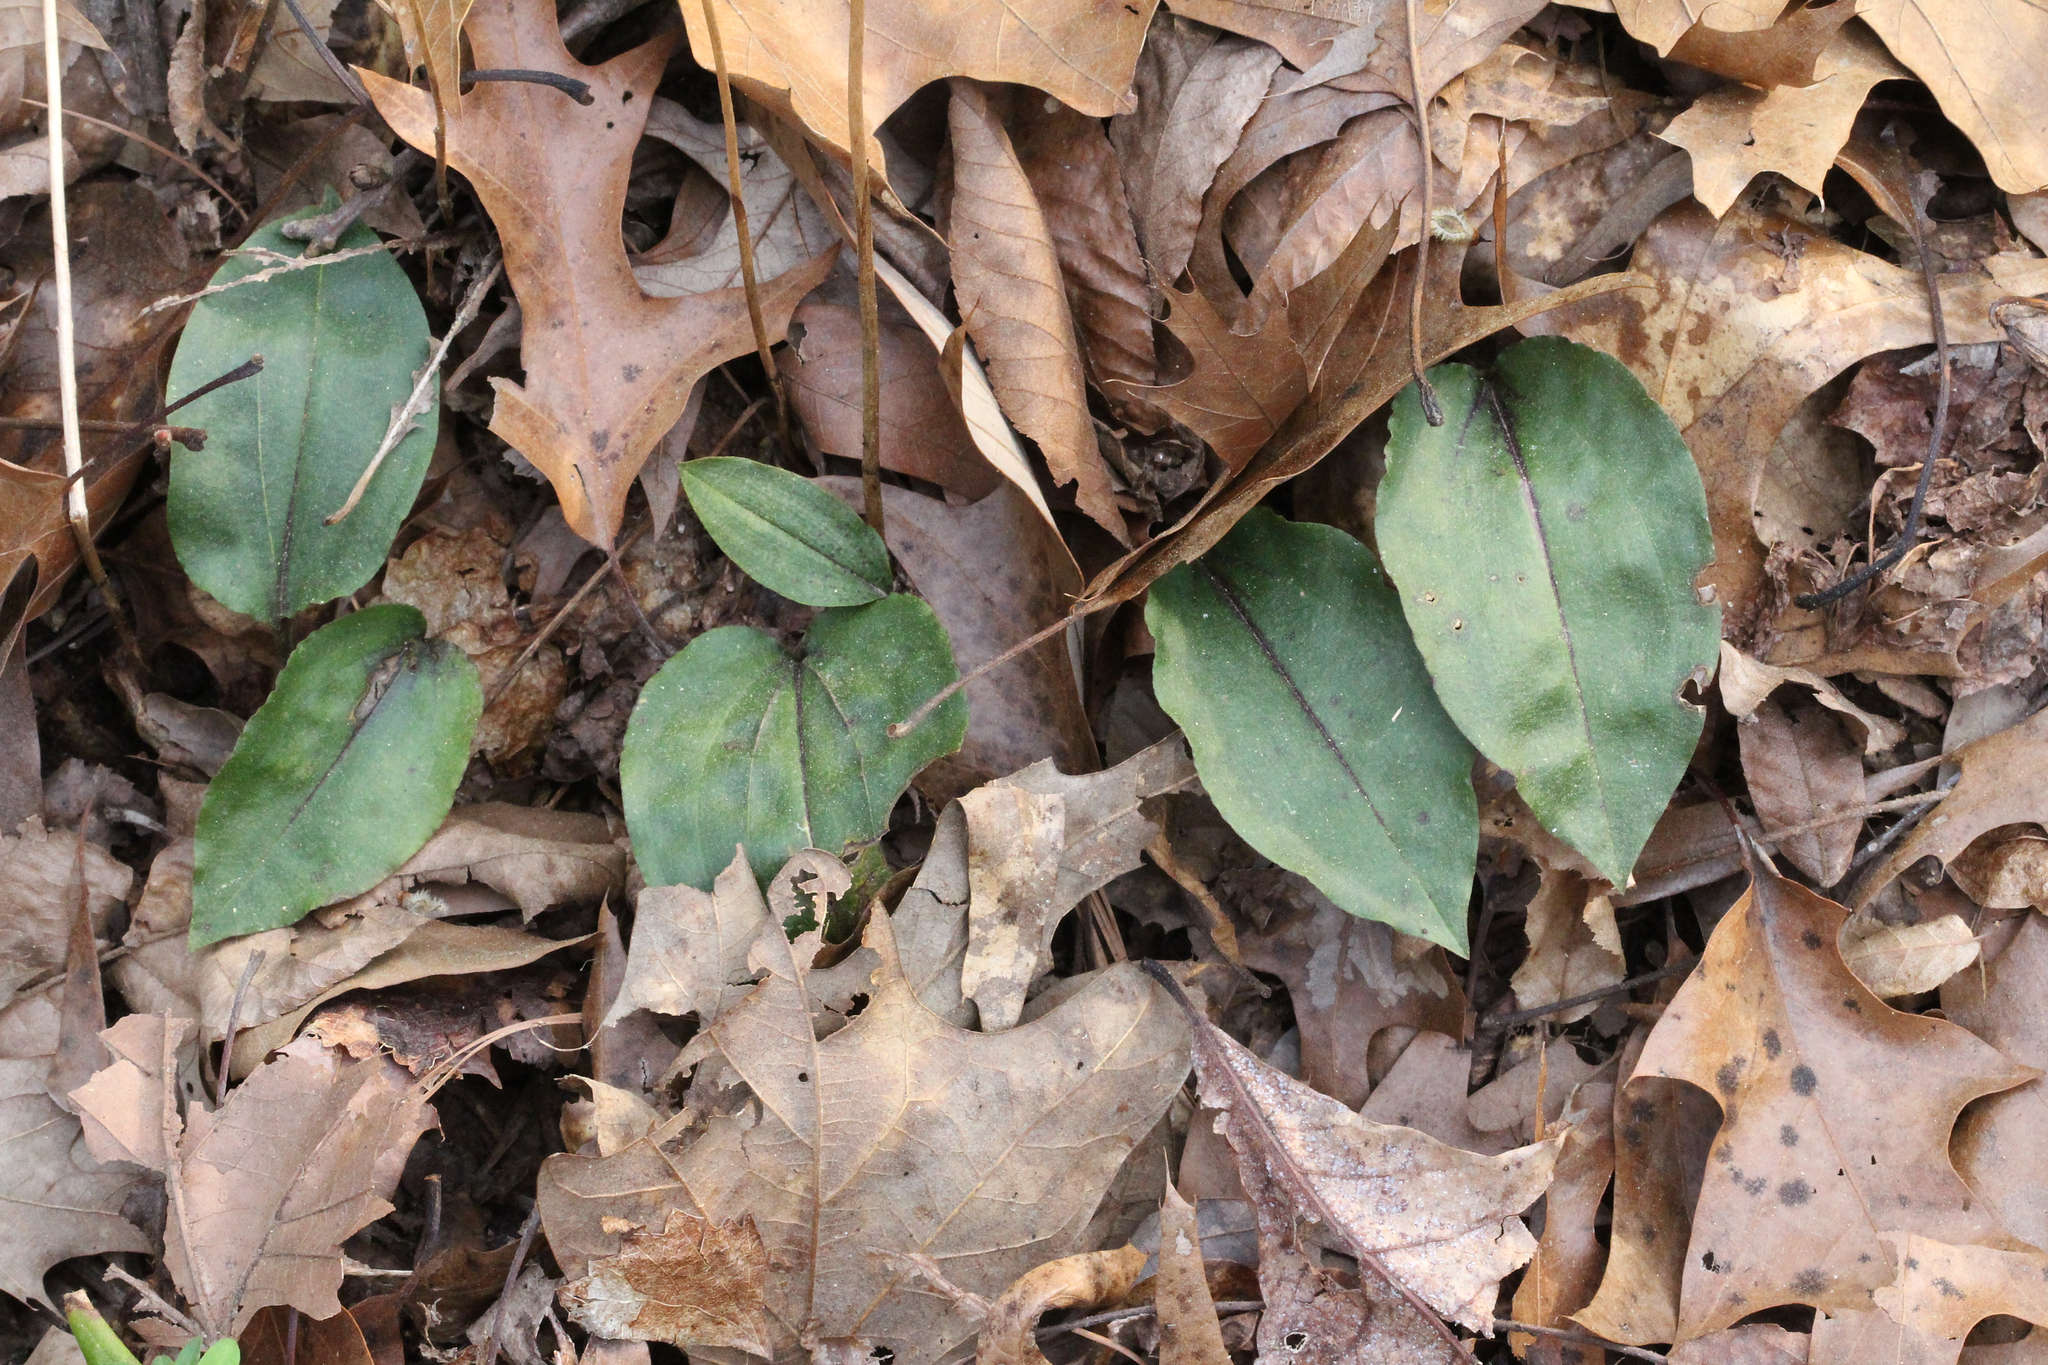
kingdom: Plantae
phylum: Tracheophyta
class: Liliopsida
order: Asparagales
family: Orchidaceae
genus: Tipularia
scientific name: Tipularia discolor
